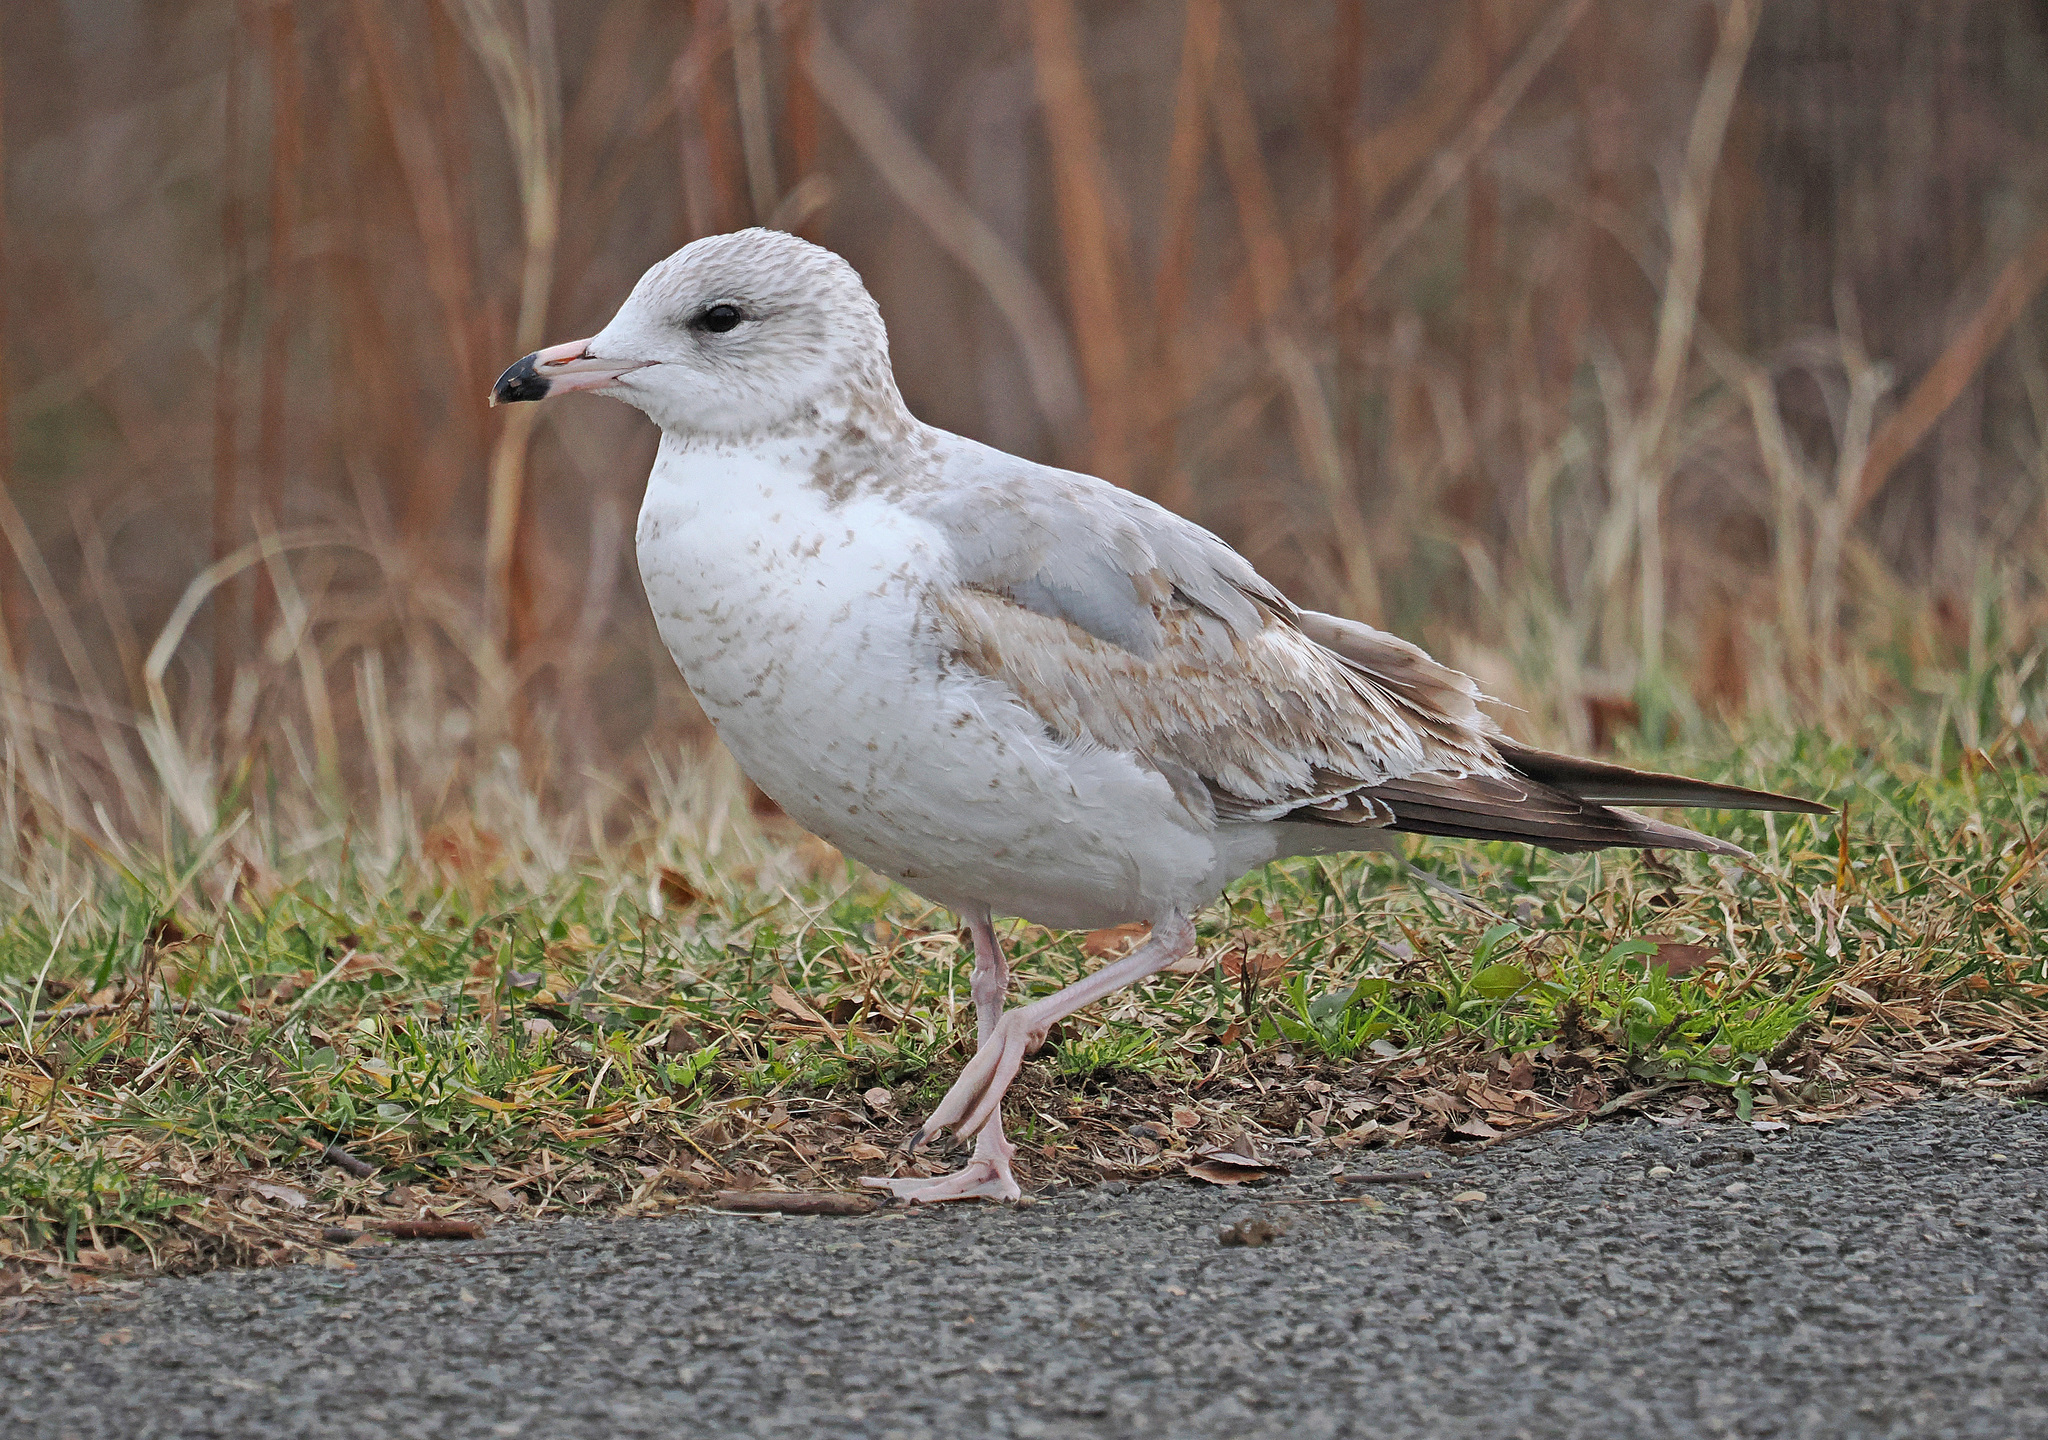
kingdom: Animalia
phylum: Chordata
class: Aves
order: Charadriiformes
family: Laridae
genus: Larus
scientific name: Larus delawarensis
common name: Ring-billed gull
